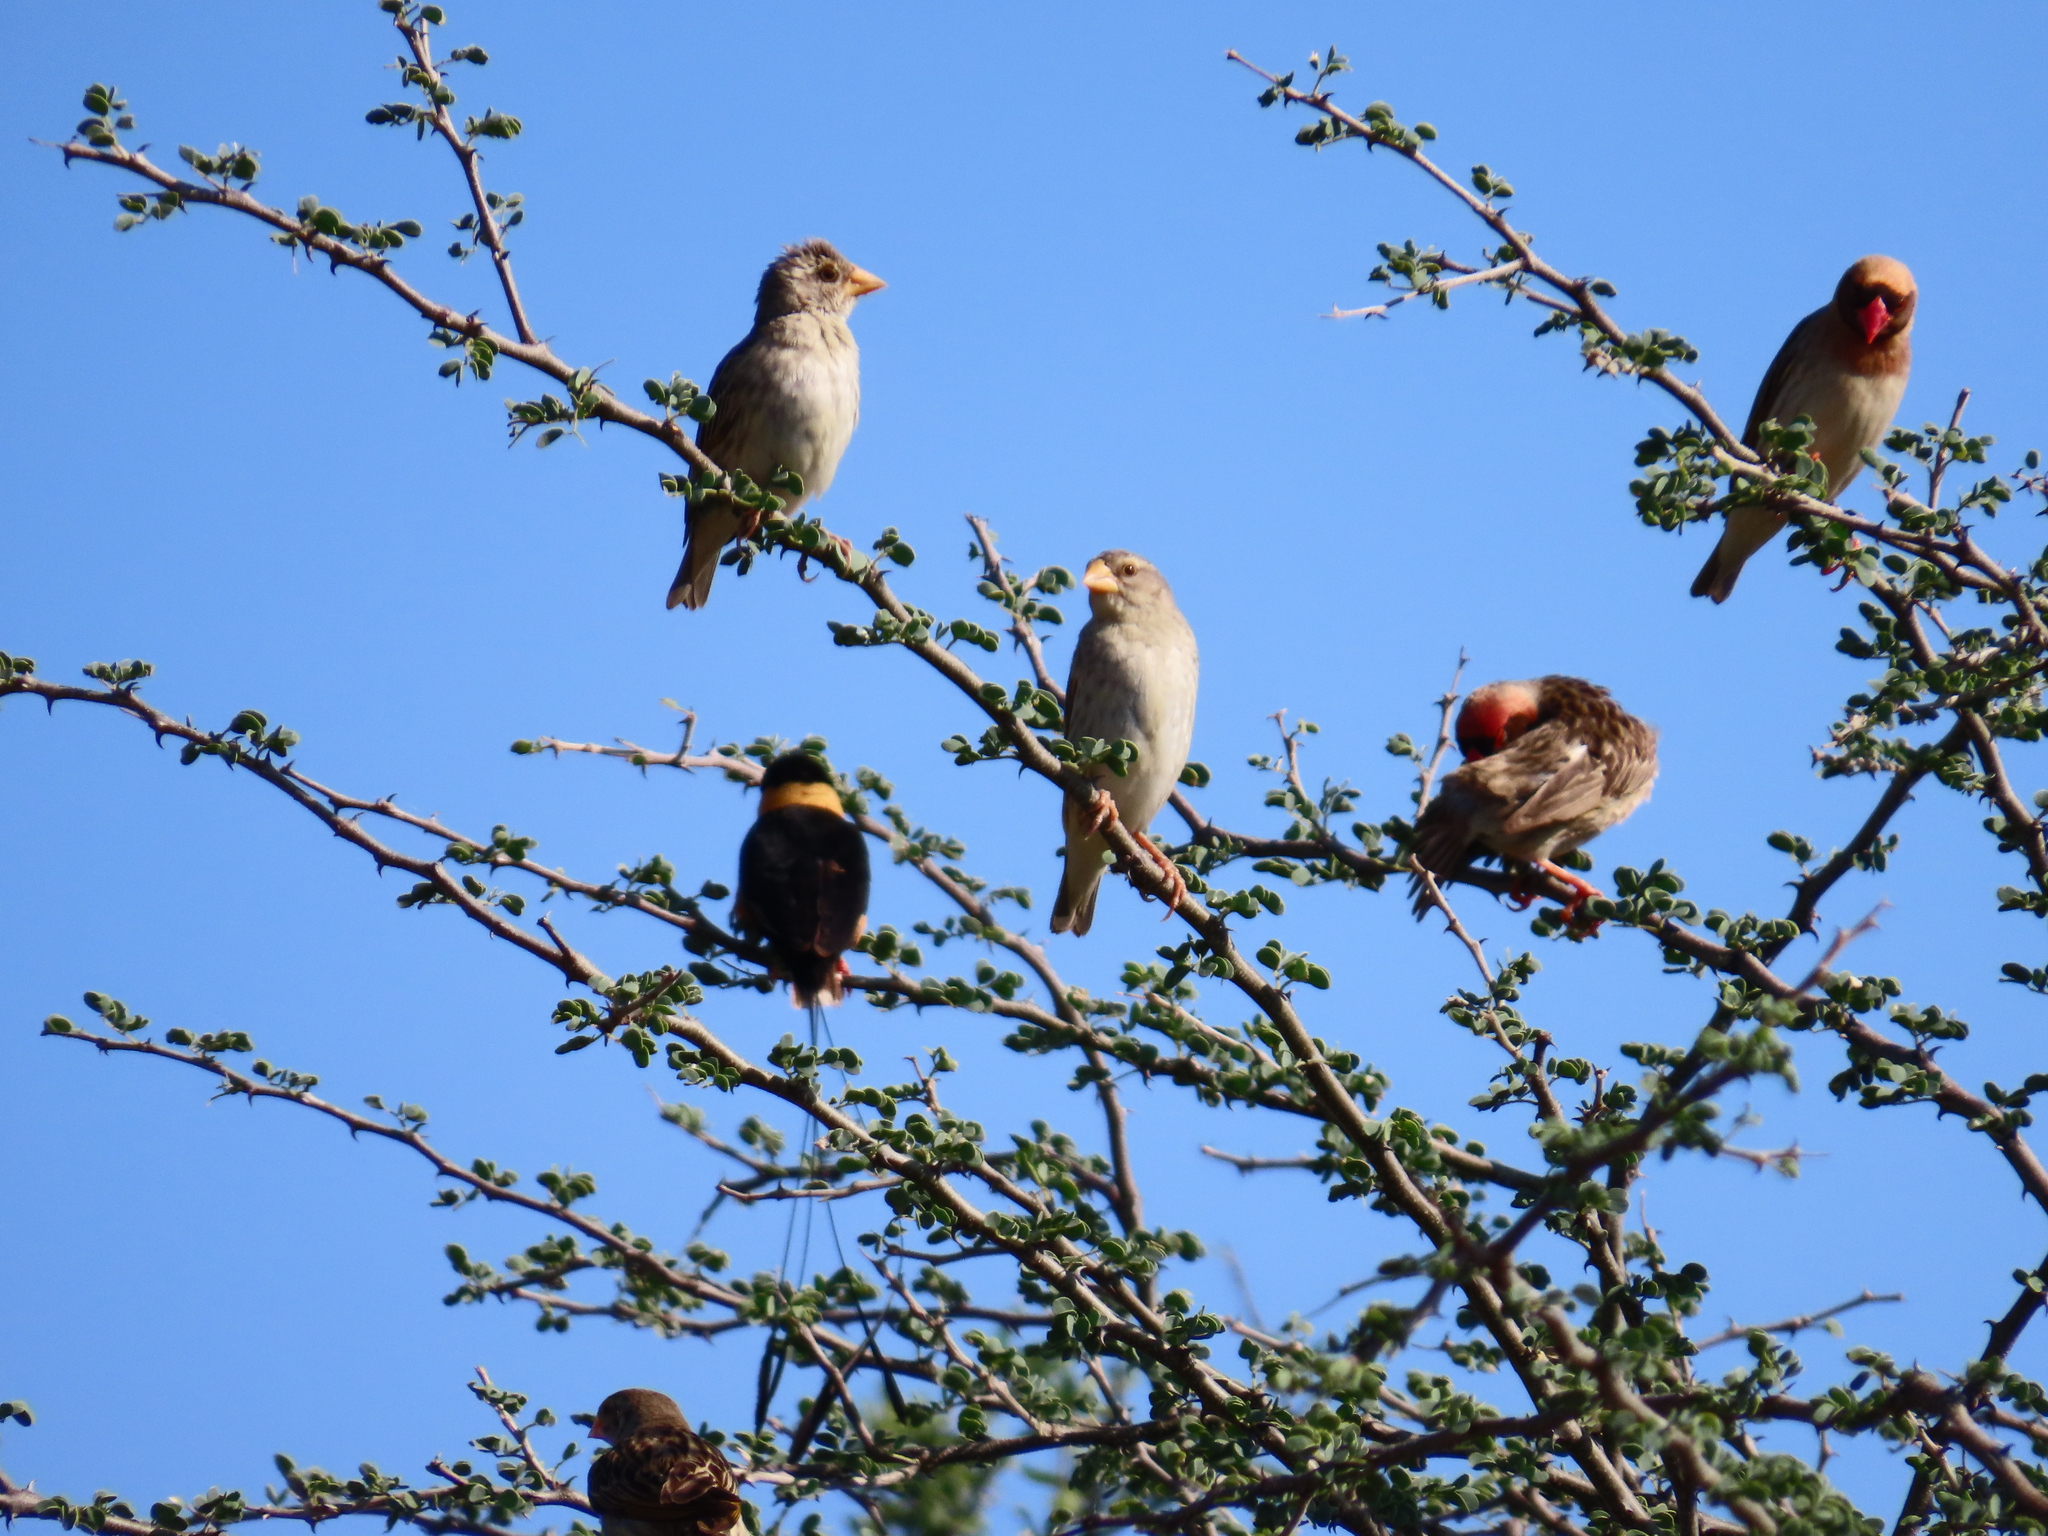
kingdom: Animalia
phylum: Chordata
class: Aves
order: Passeriformes
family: Ploceidae
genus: Quelea
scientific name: Quelea quelea
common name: Red-billed quelea
